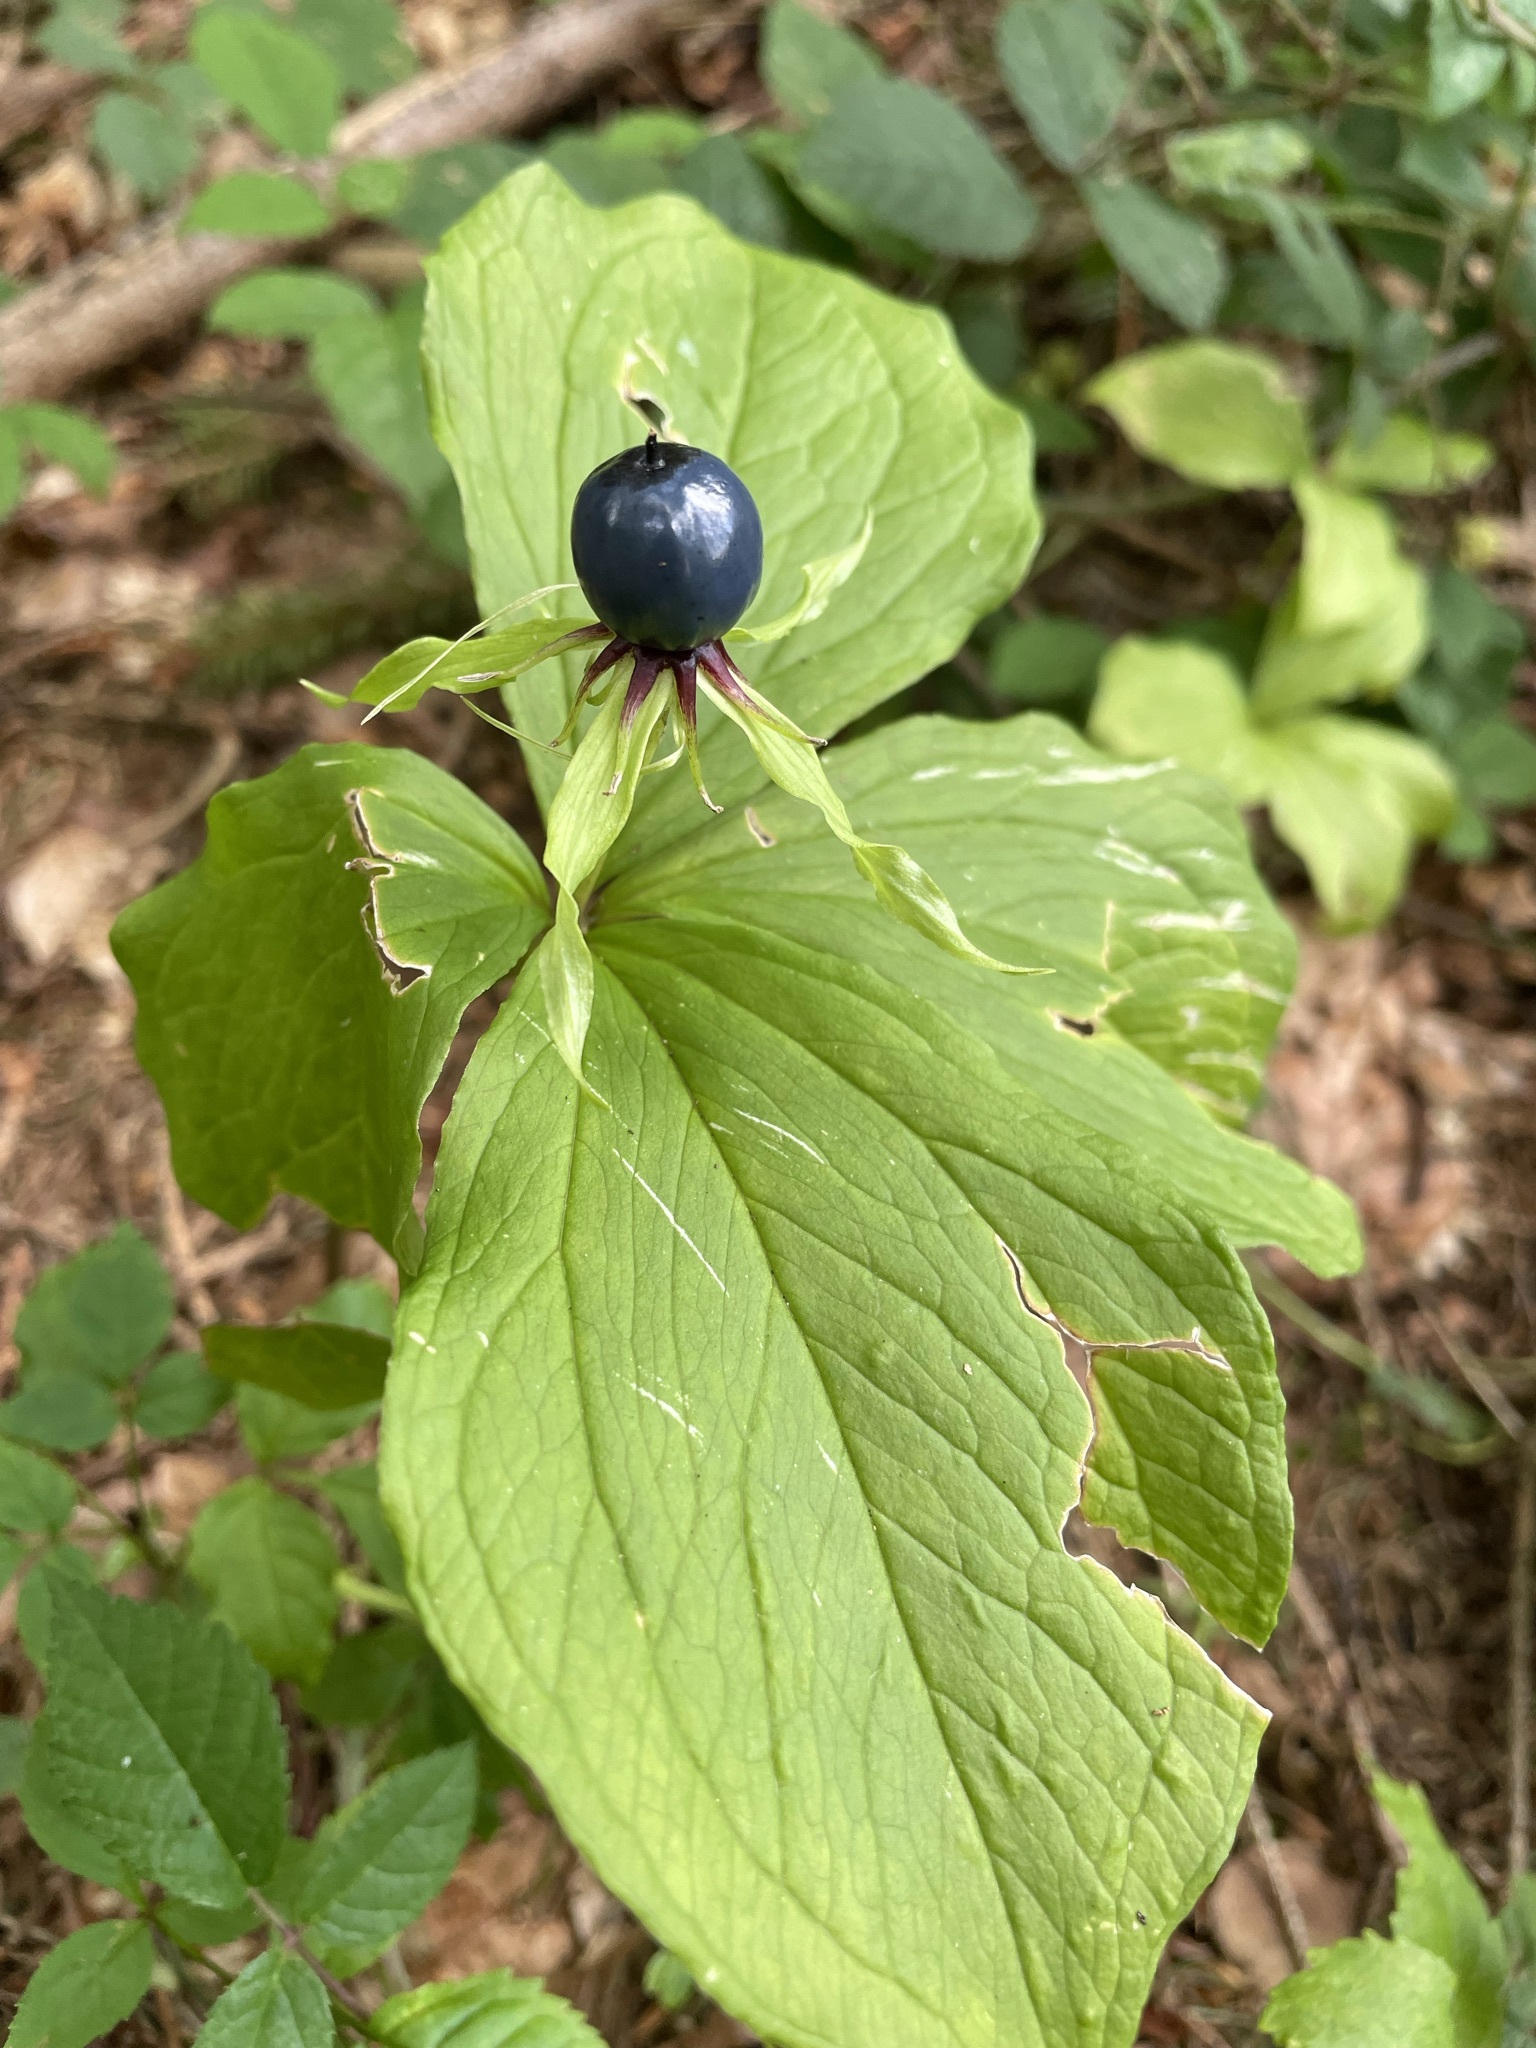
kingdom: Plantae
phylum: Tracheophyta
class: Liliopsida
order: Liliales
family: Melanthiaceae
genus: Paris
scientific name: Paris quadrifolia
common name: Herb-paris
